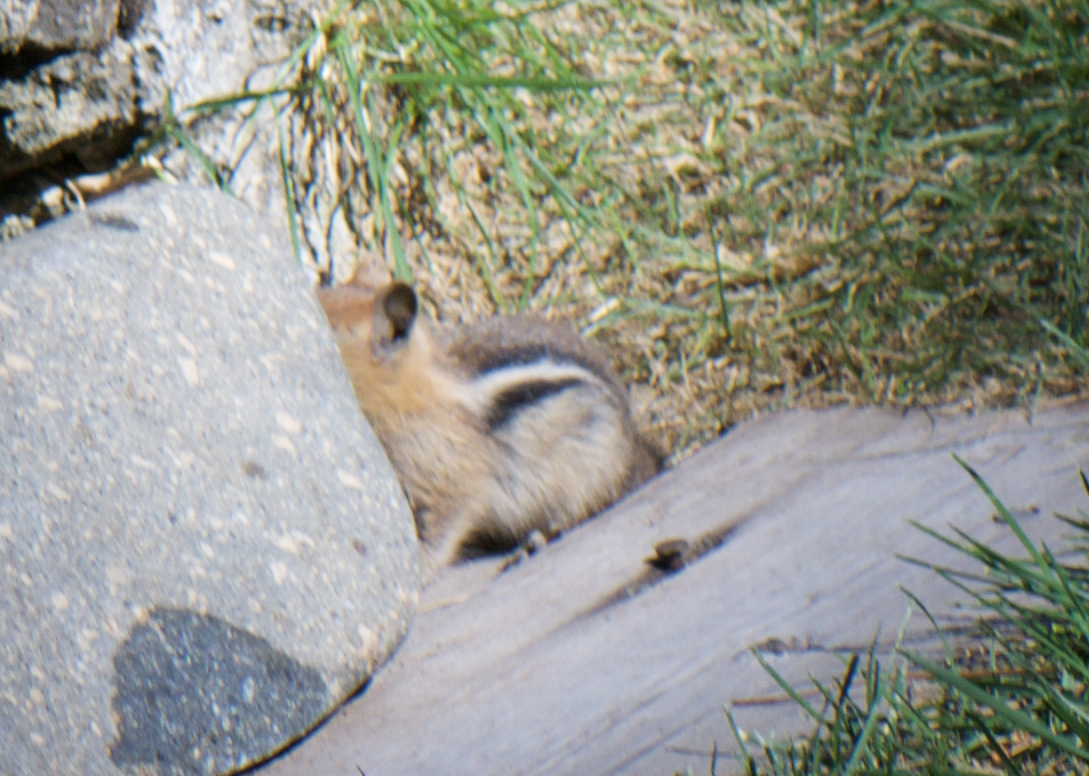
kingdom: Animalia
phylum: Chordata
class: Mammalia
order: Rodentia
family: Sciuridae
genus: Callospermophilus
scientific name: Callospermophilus lateralis
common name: Golden-mantled ground squirrel
